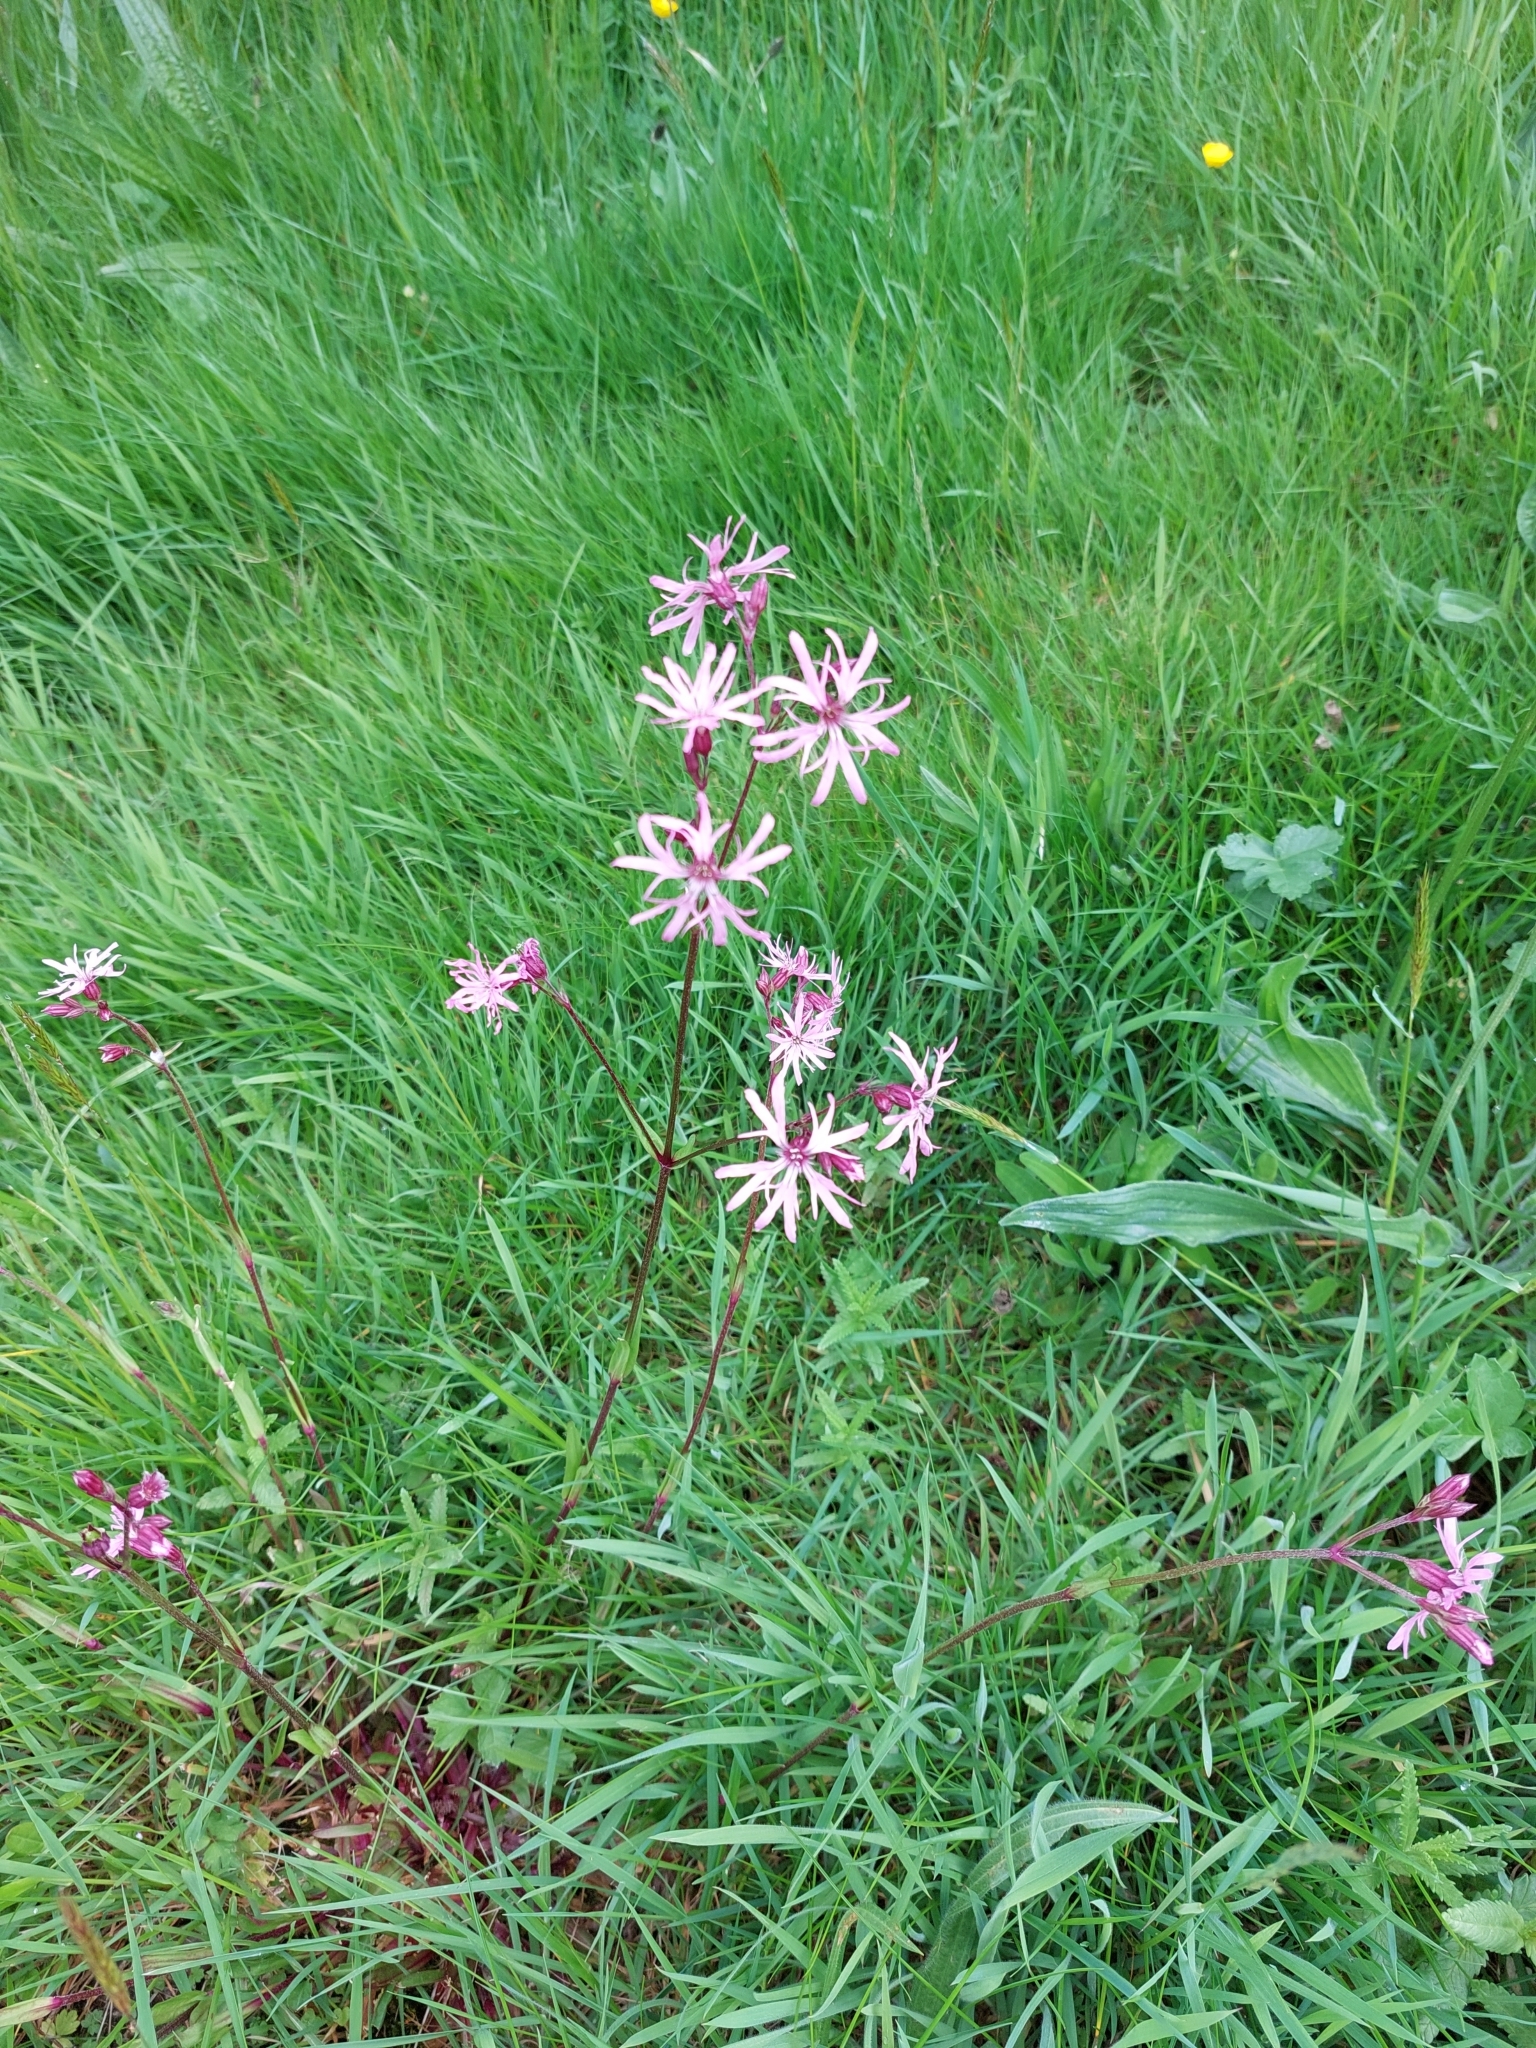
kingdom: Plantae
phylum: Tracheophyta
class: Magnoliopsida
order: Caryophyllales
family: Caryophyllaceae
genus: Silene
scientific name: Silene flos-cuculi
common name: Ragged-robin
